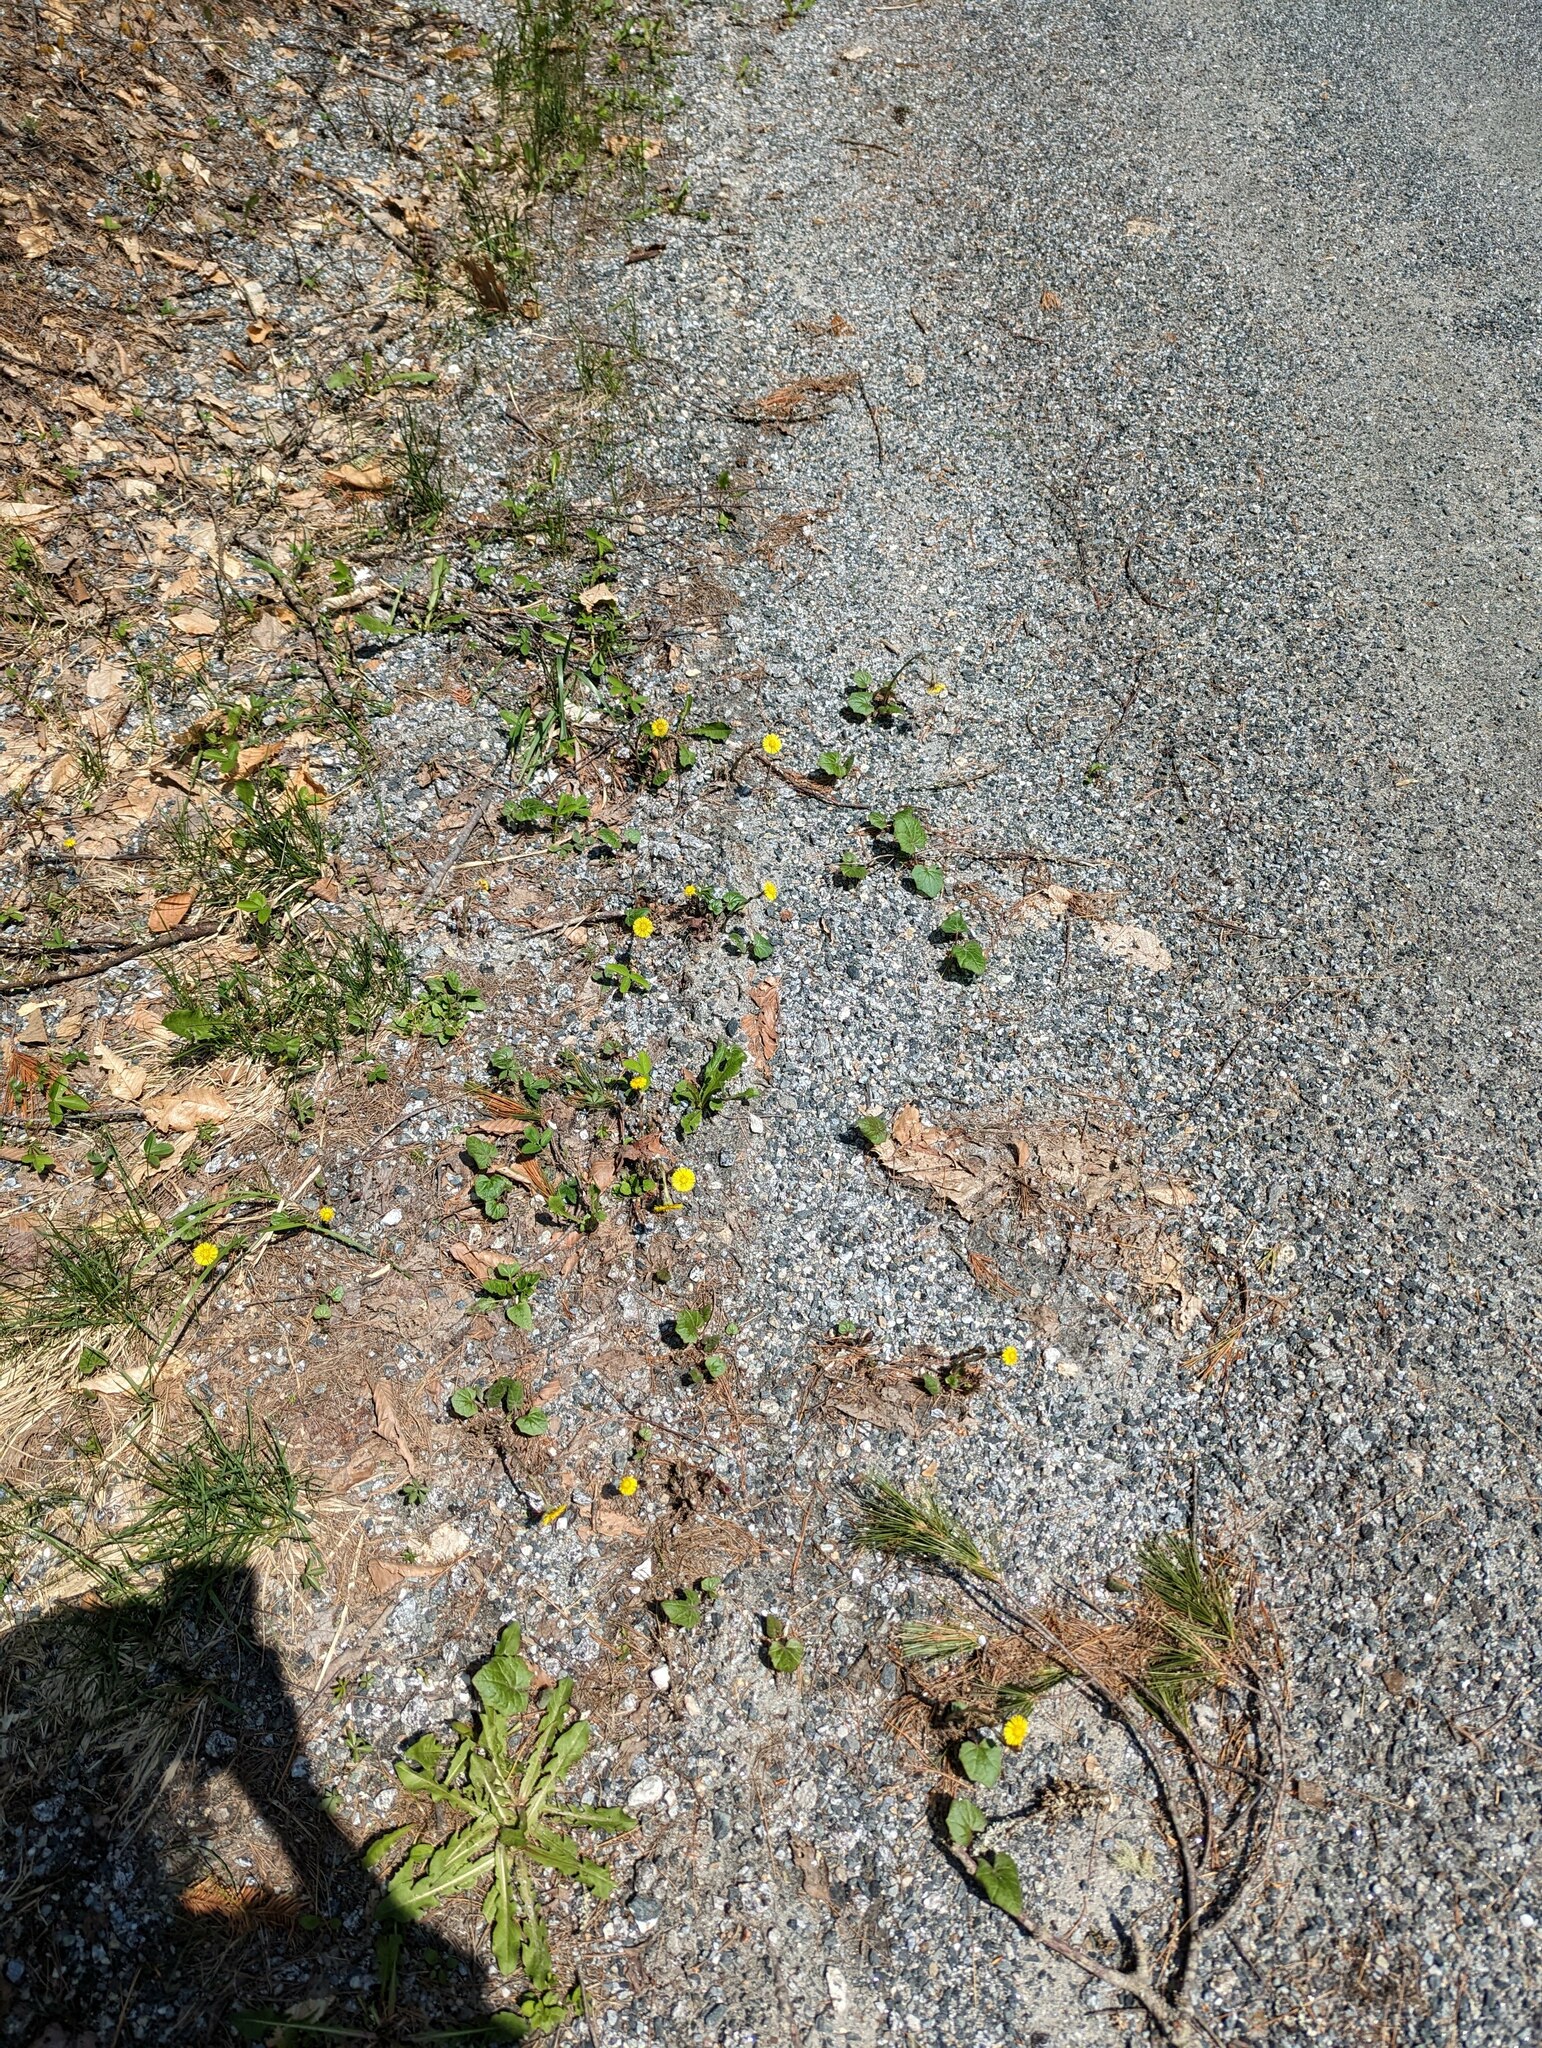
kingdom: Plantae
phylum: Tracheophyta
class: Magnoliopsida
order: Asterales
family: Asteraceae
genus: Tussilago
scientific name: Tussilago farfara
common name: Coltsfoot
